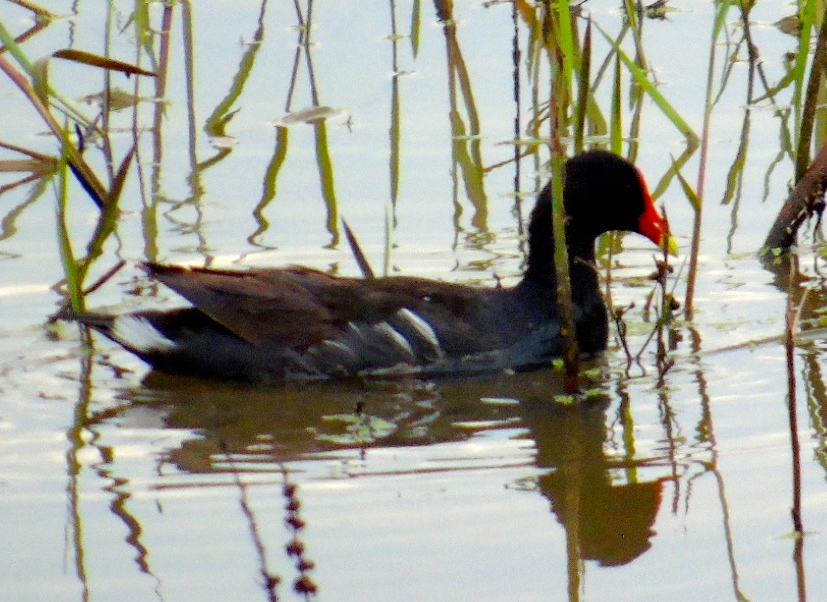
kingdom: Animalia
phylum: Chordata
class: Aves
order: Gruiformes
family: Rallidae
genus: Gallinula
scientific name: Gallinula chloropus
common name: Common moorhen
